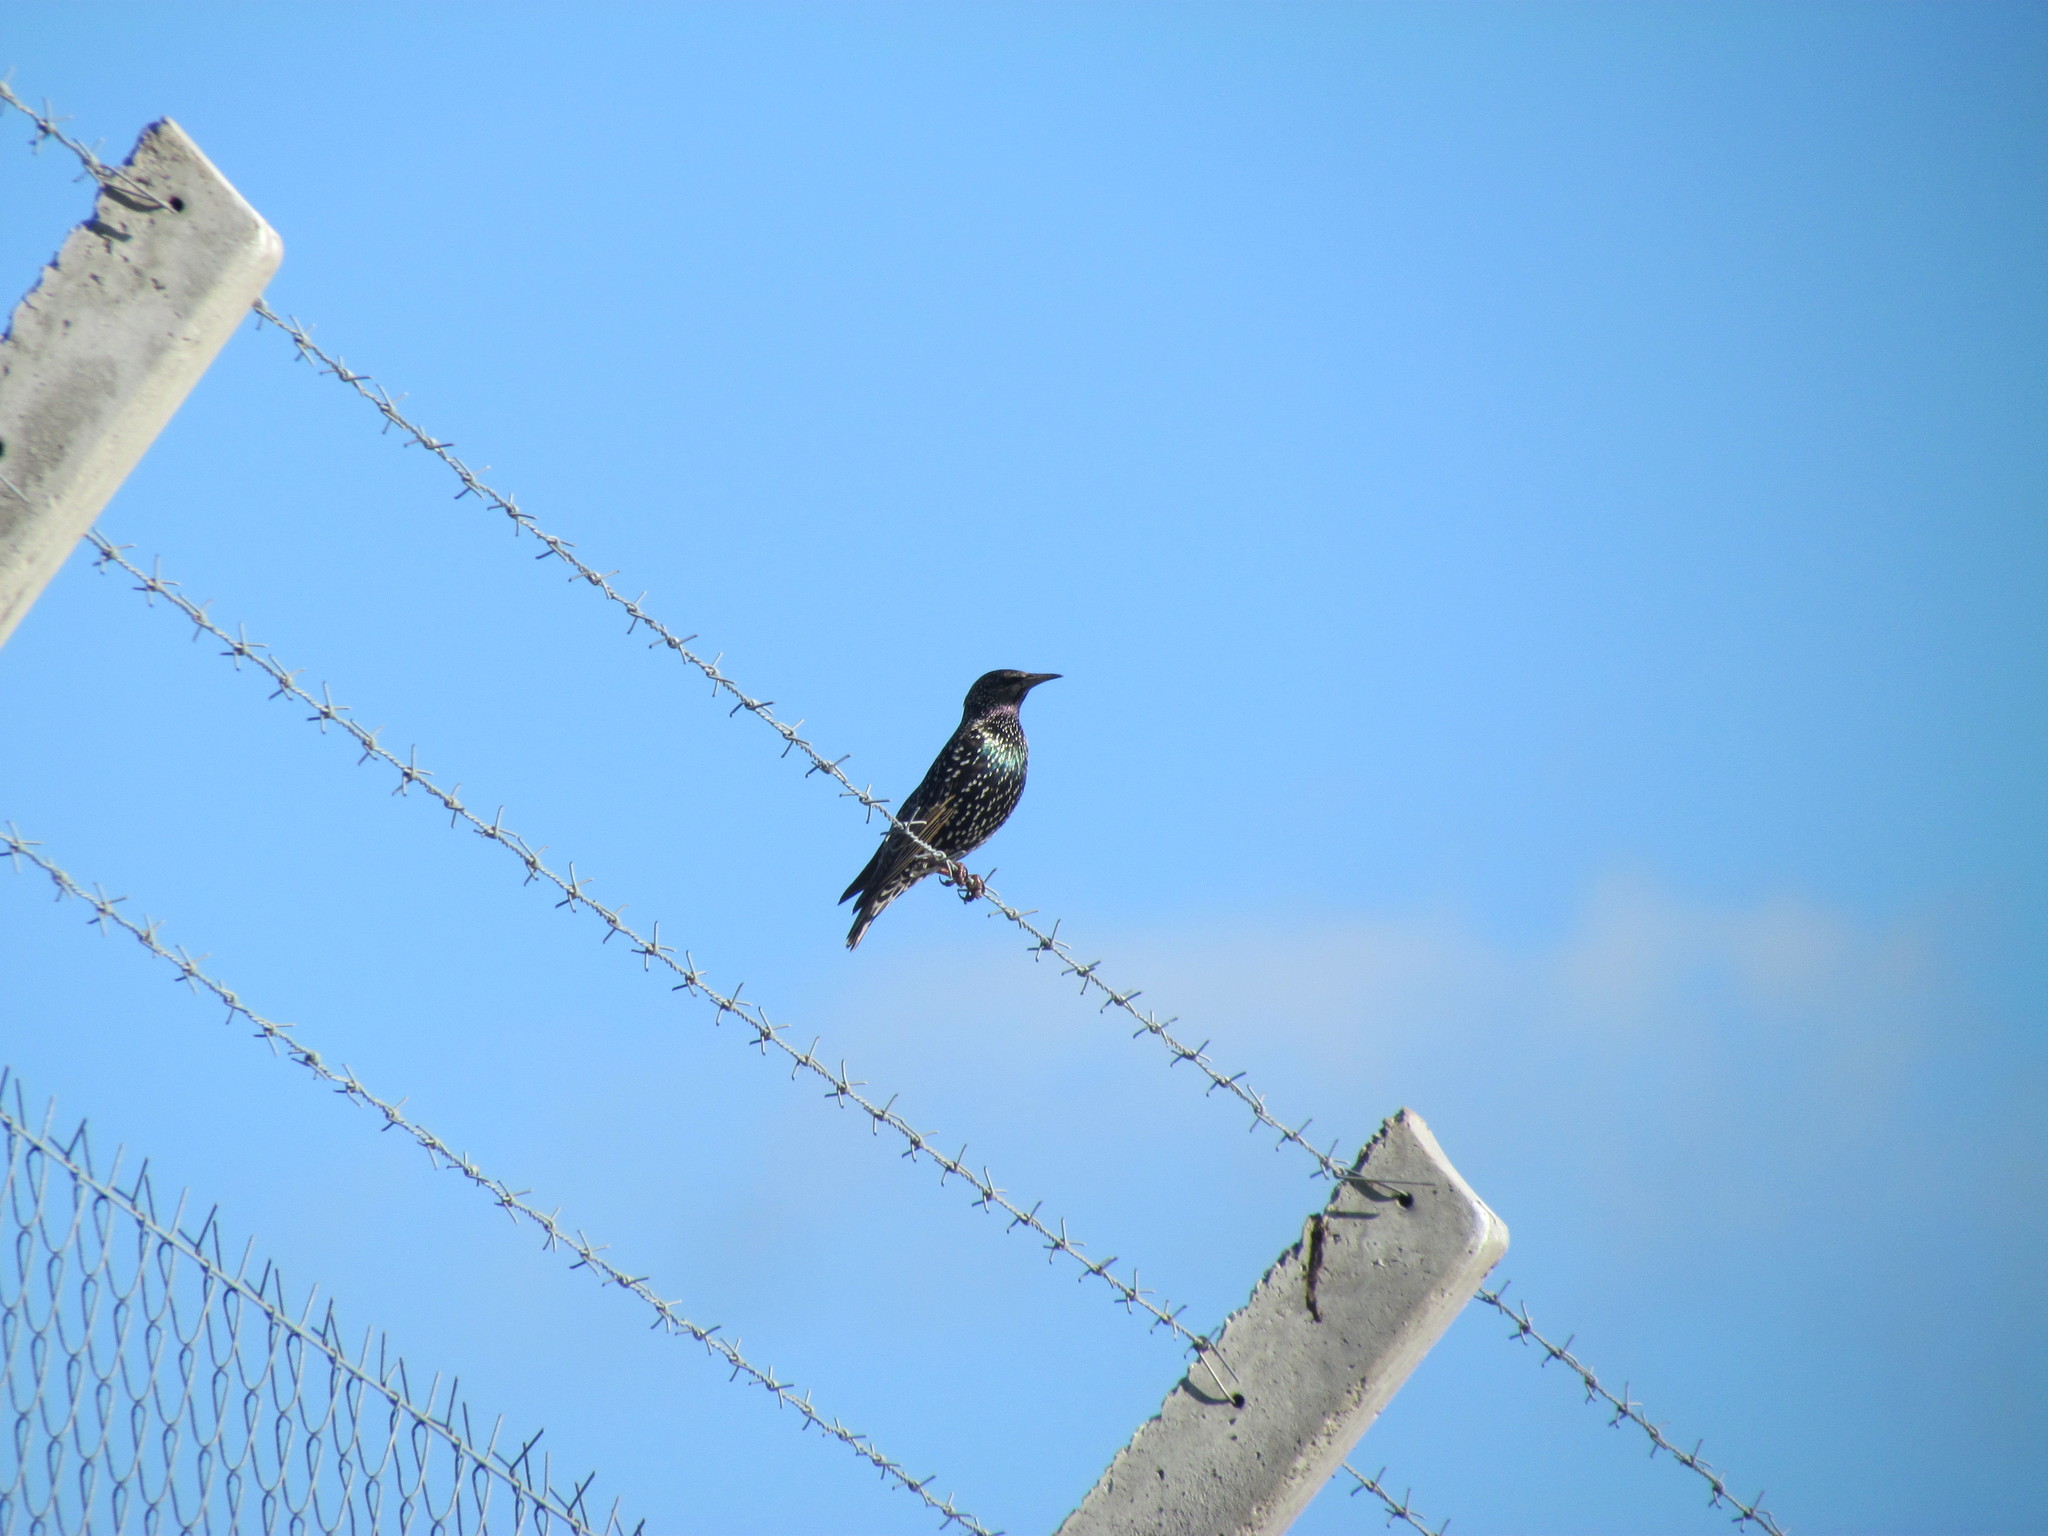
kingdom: Animalia
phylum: Chordata
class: Aves
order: Passeriformes
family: Sturnidae
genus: Sturnus
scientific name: Sturnus vulgaris
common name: Common starling
